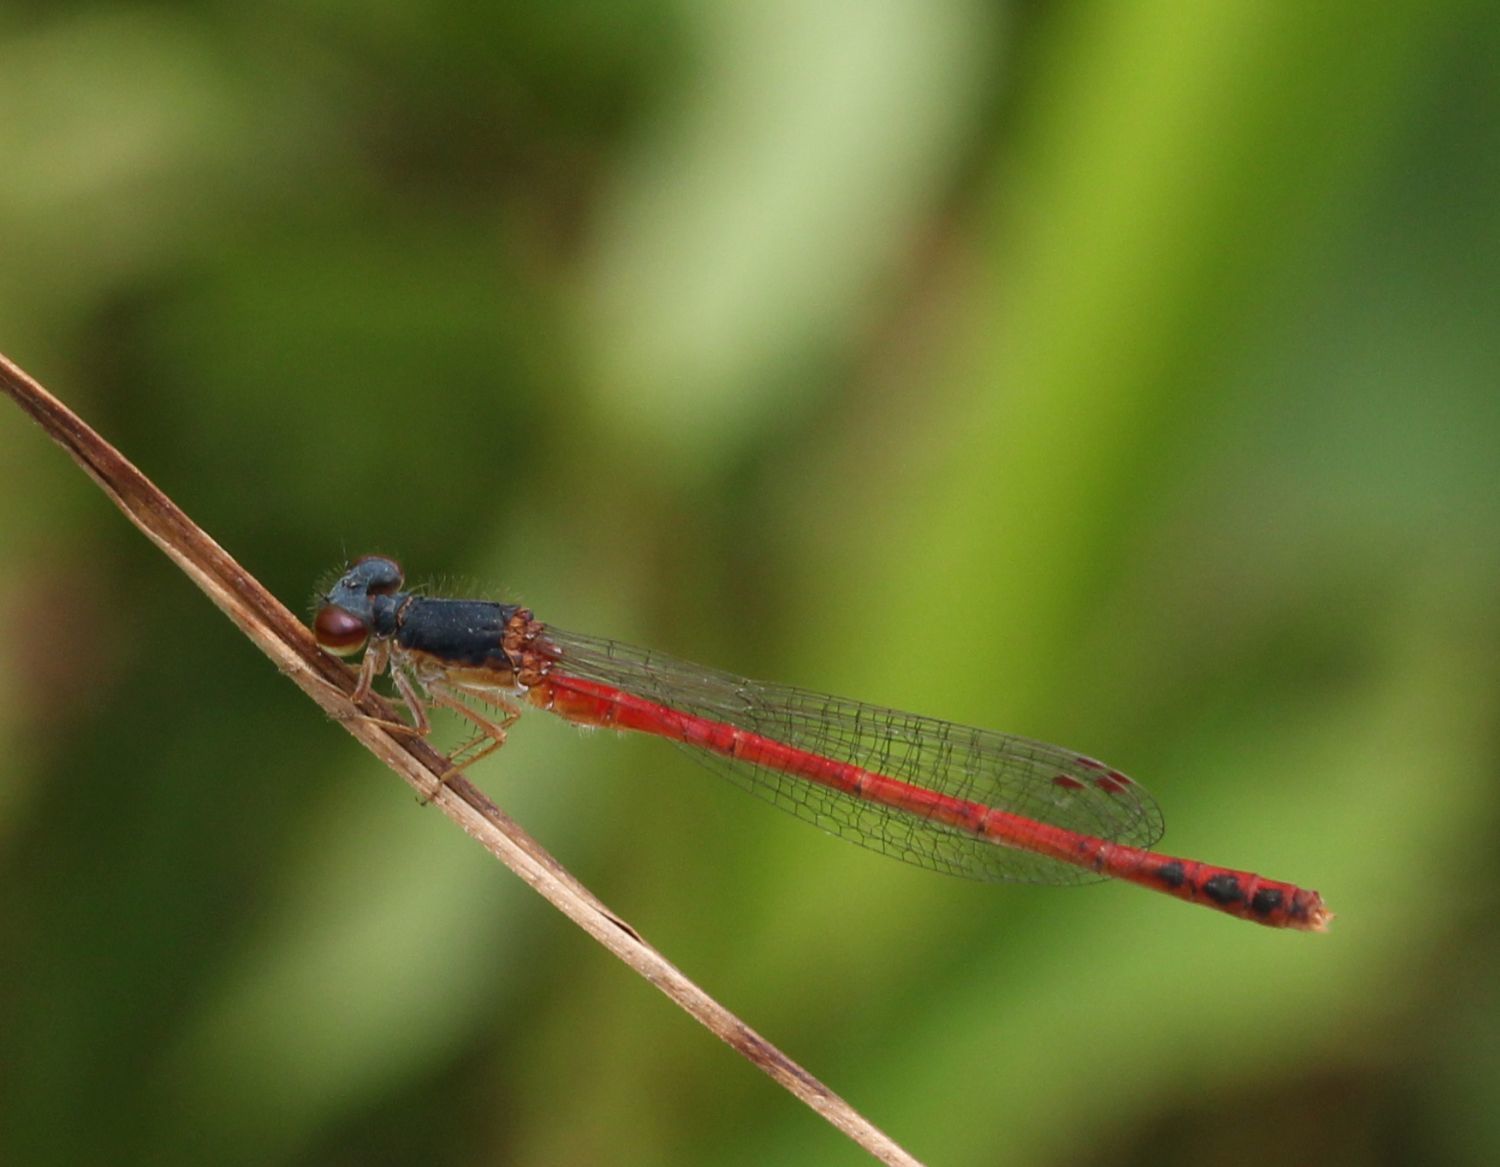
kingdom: Animalia
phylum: Arthropoda
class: Insecta
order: Odonata
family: Coenagrionidae
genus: Amphiagrion
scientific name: Amphiagrion saucium
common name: Eastern red damsel
